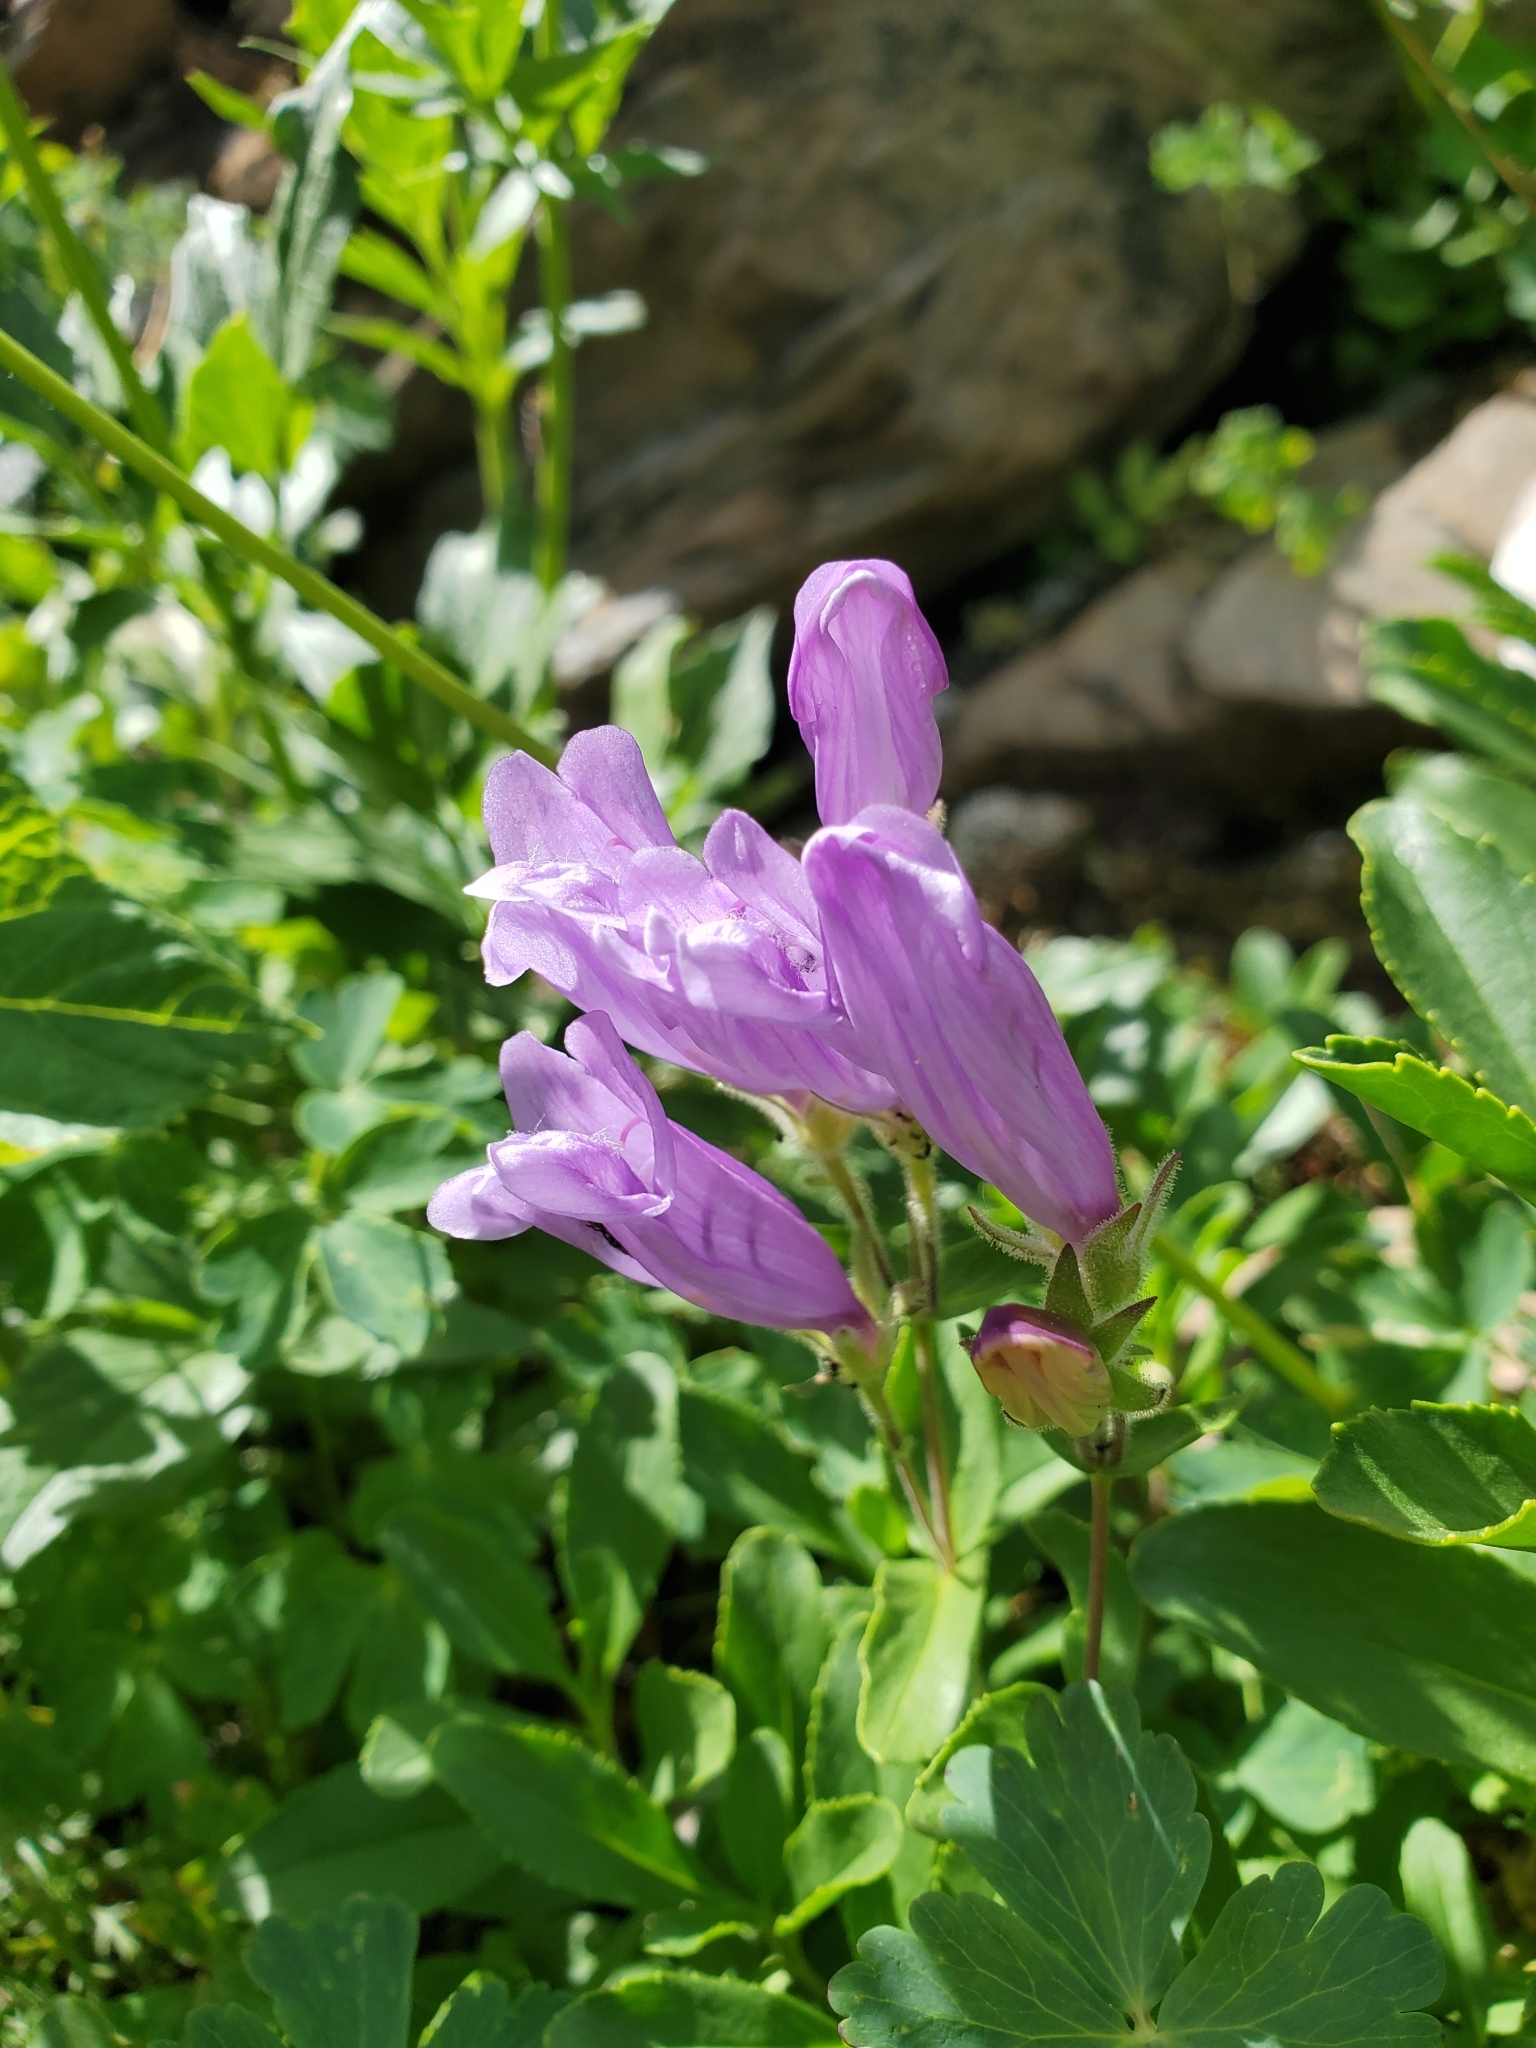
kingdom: Plantae
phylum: Tracheophyta
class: Magnoliopsida
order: Lamiales
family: Plantaginaceae
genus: Penstemon
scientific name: Penstemon fruticosus
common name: Bush penstemon
